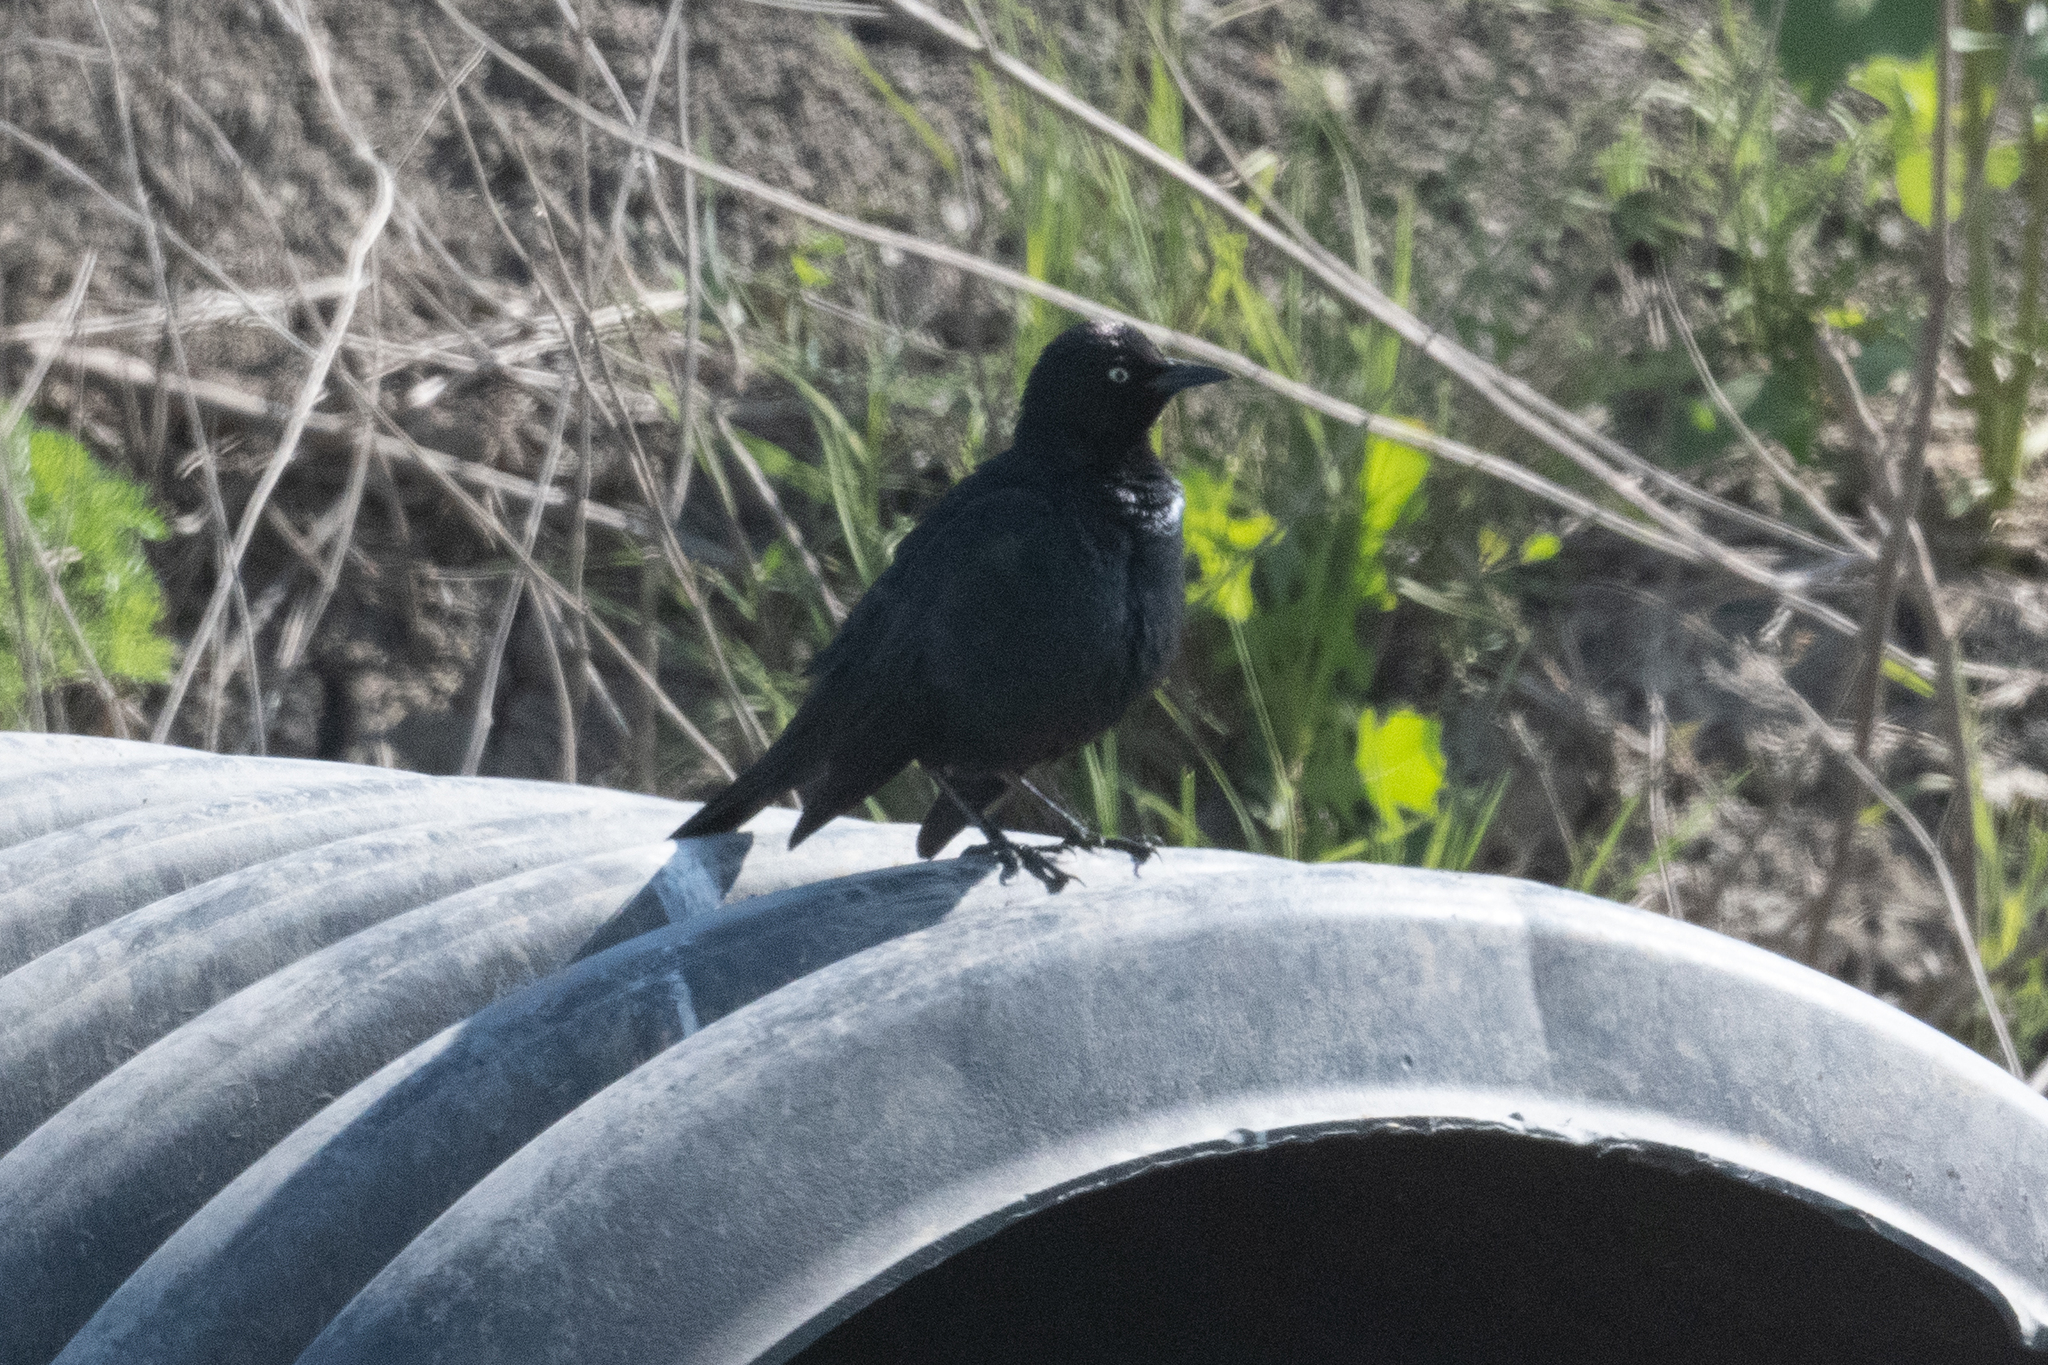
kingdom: Animalia
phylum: Chordata
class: Aves
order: Passeriformes
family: Icteridae
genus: Euphagus
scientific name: Euphagus cyanocephalus
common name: Brewer's blackbird
